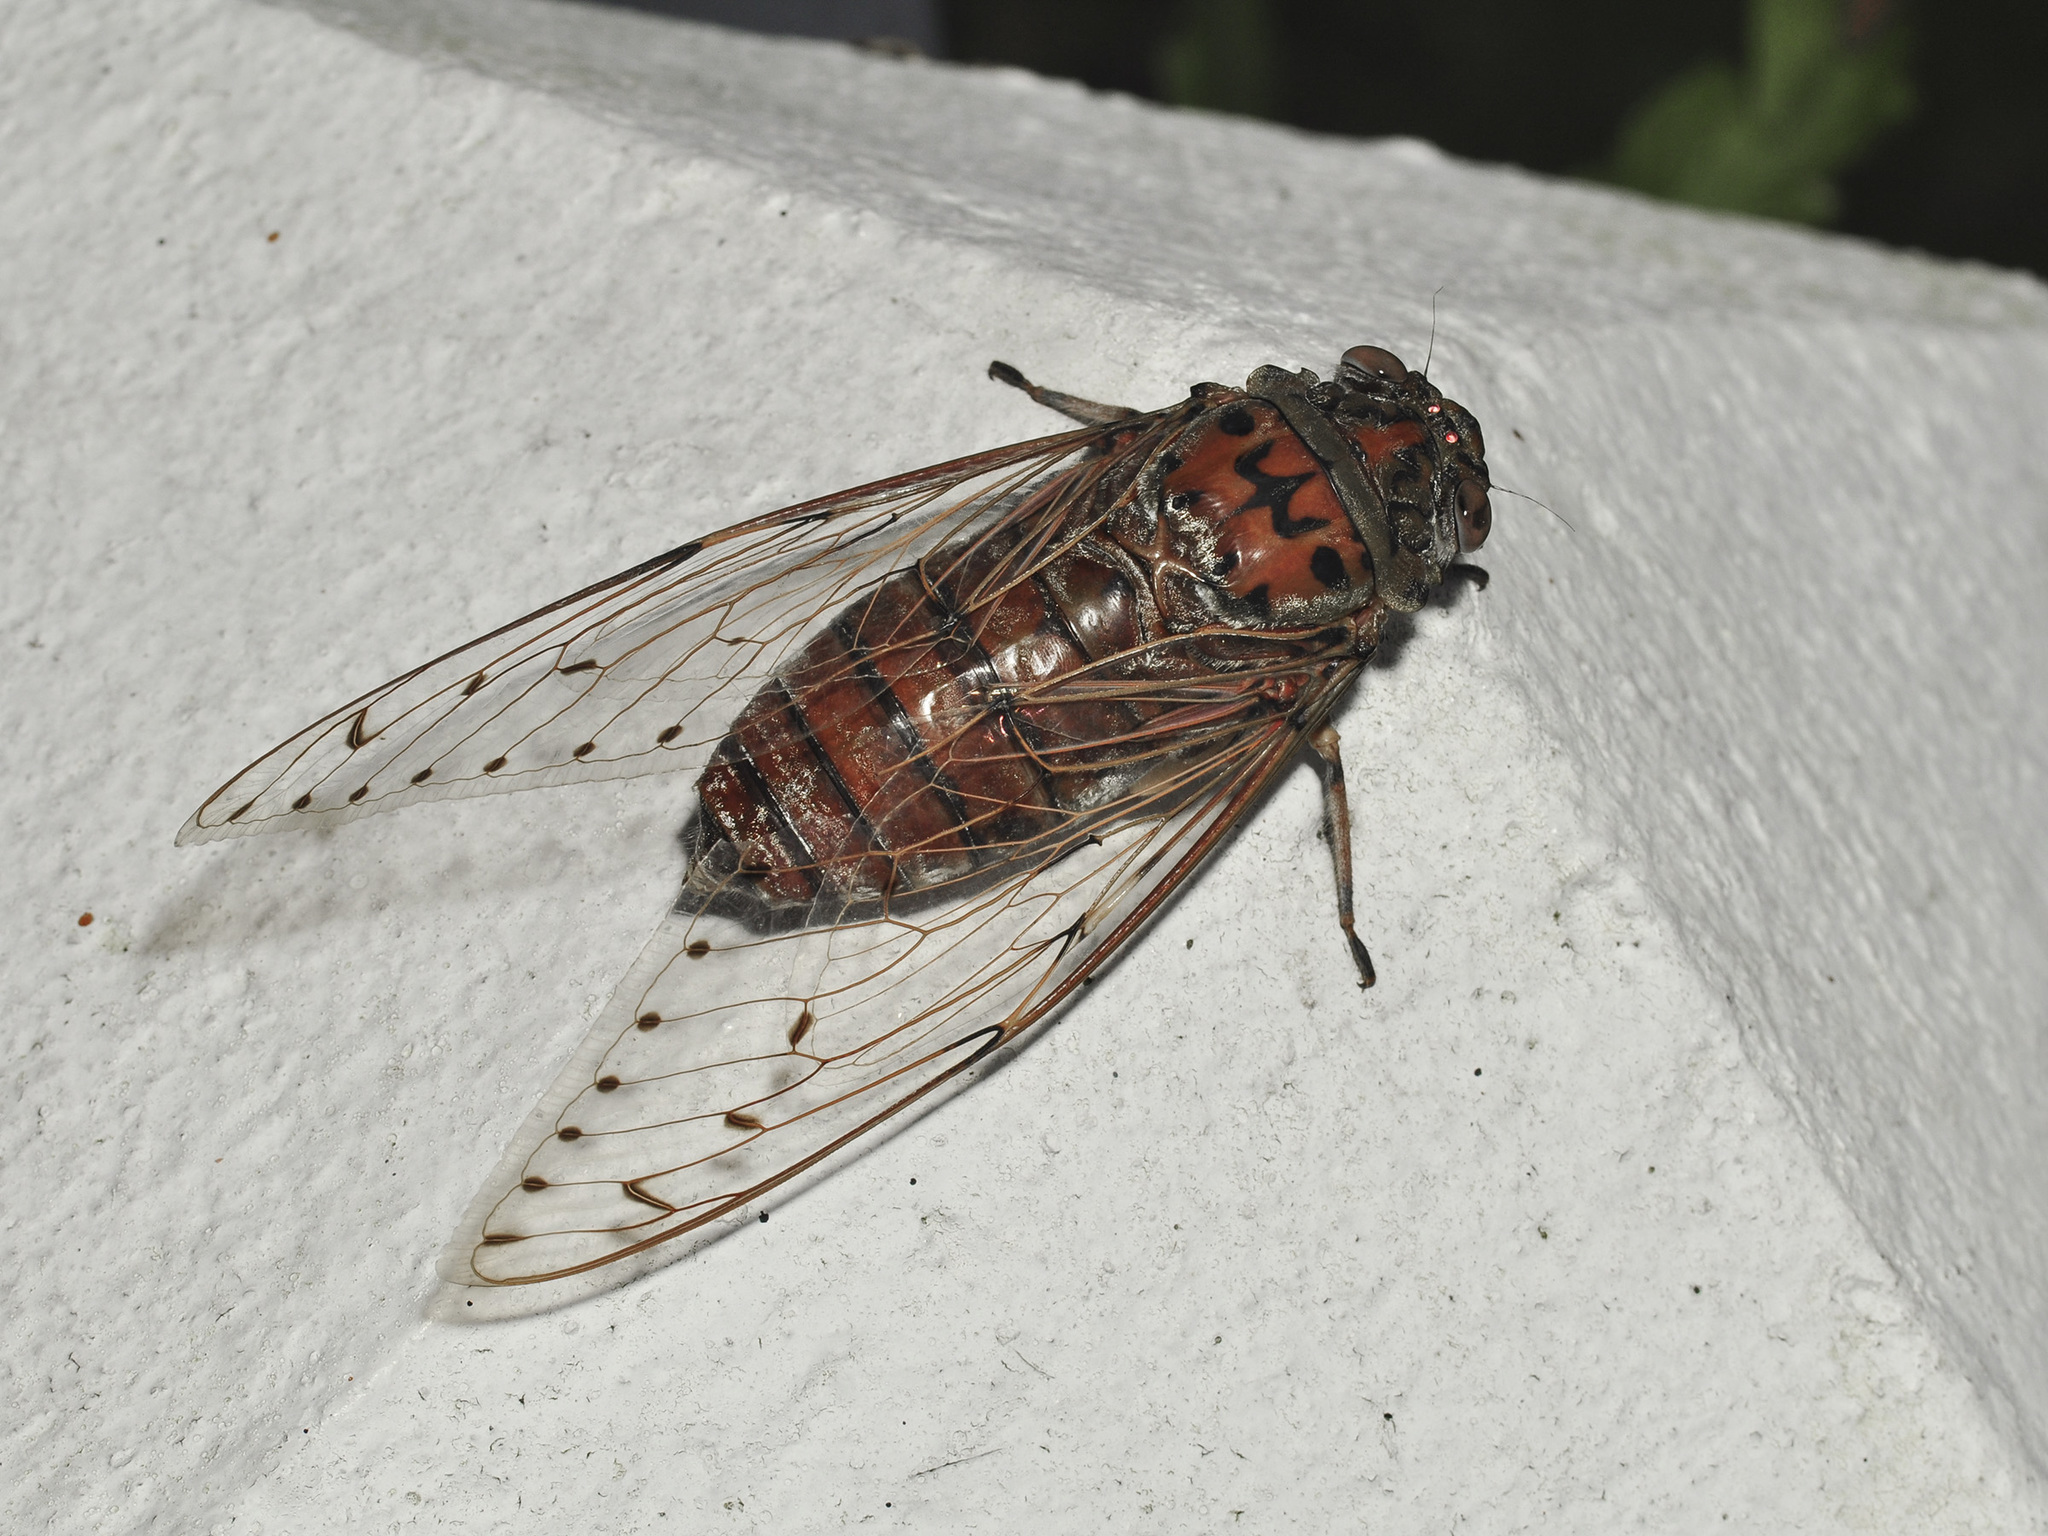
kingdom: Animalia
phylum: Arthropoda
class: Insecta
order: Hemiptera
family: Cicadidae
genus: Megapomponia
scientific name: Megapomponia imperatoria
